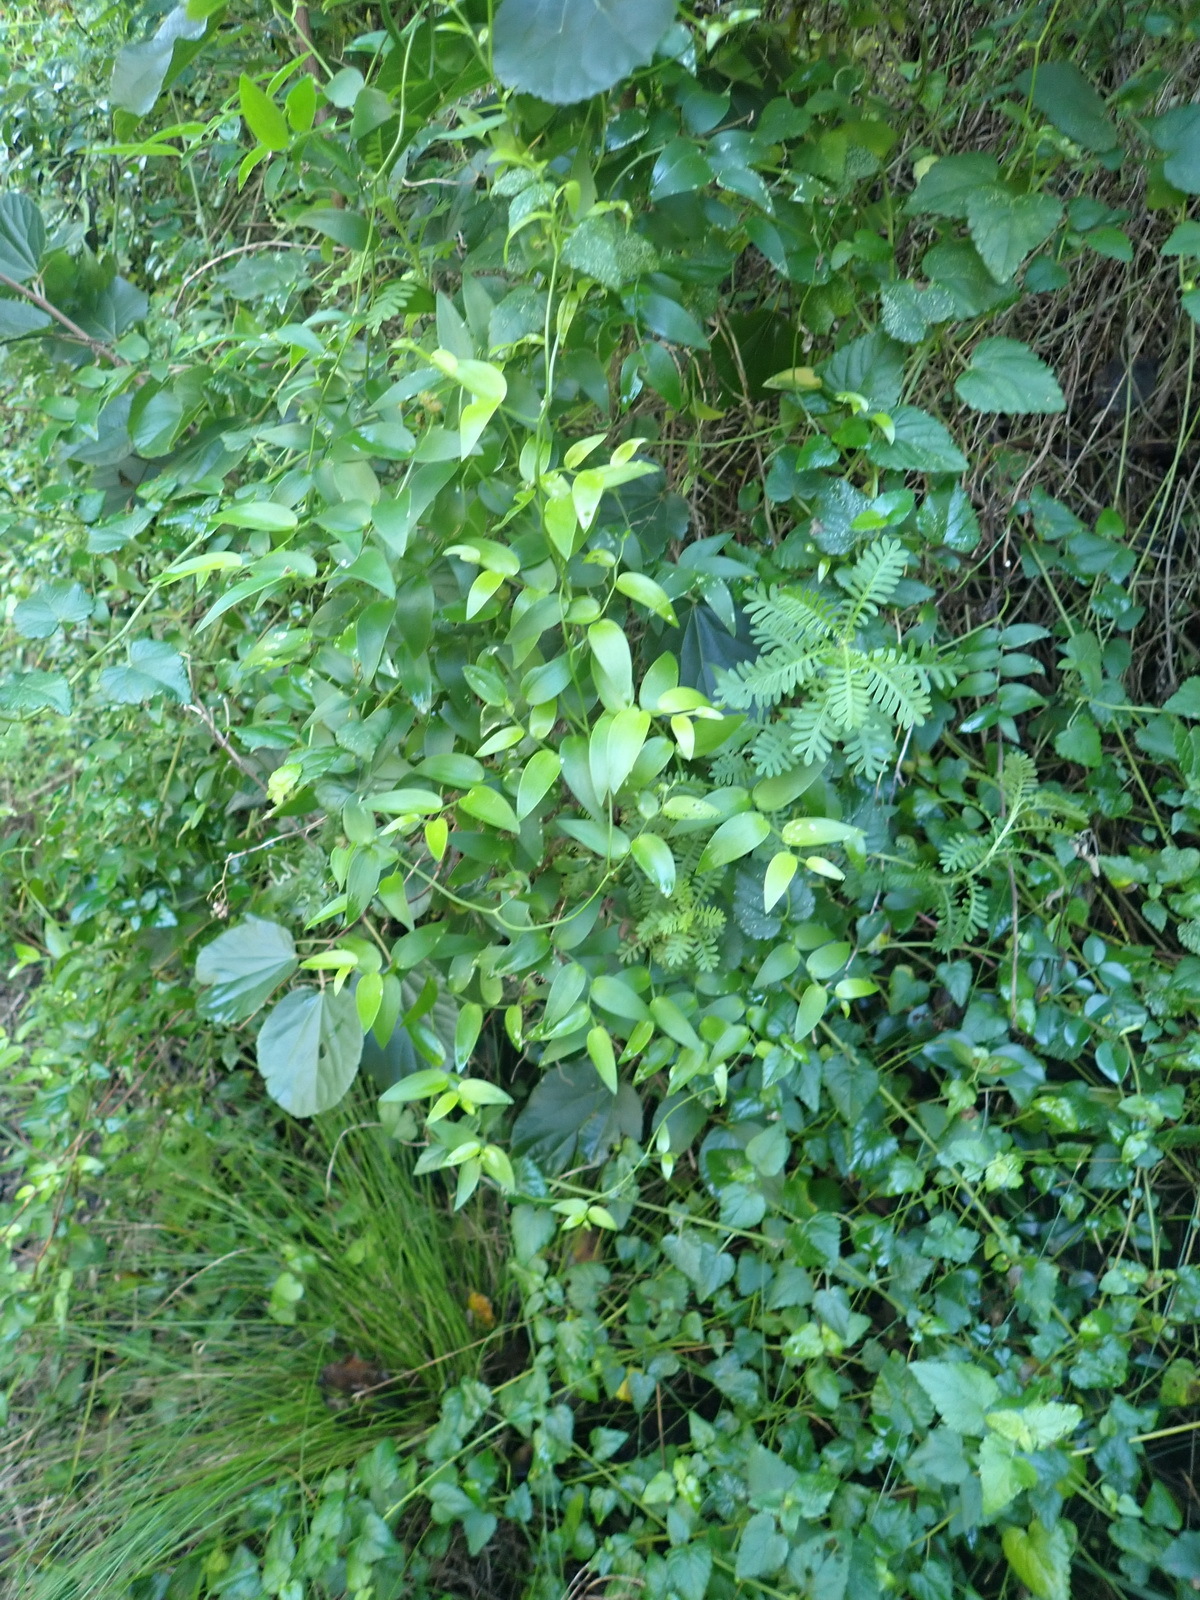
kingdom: Plantae
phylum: Tracheophyta
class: Liliopsida
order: Asparagales
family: Asparagaceae
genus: Asparagus
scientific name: Asparagus asparagoides
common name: African asparagus fern
